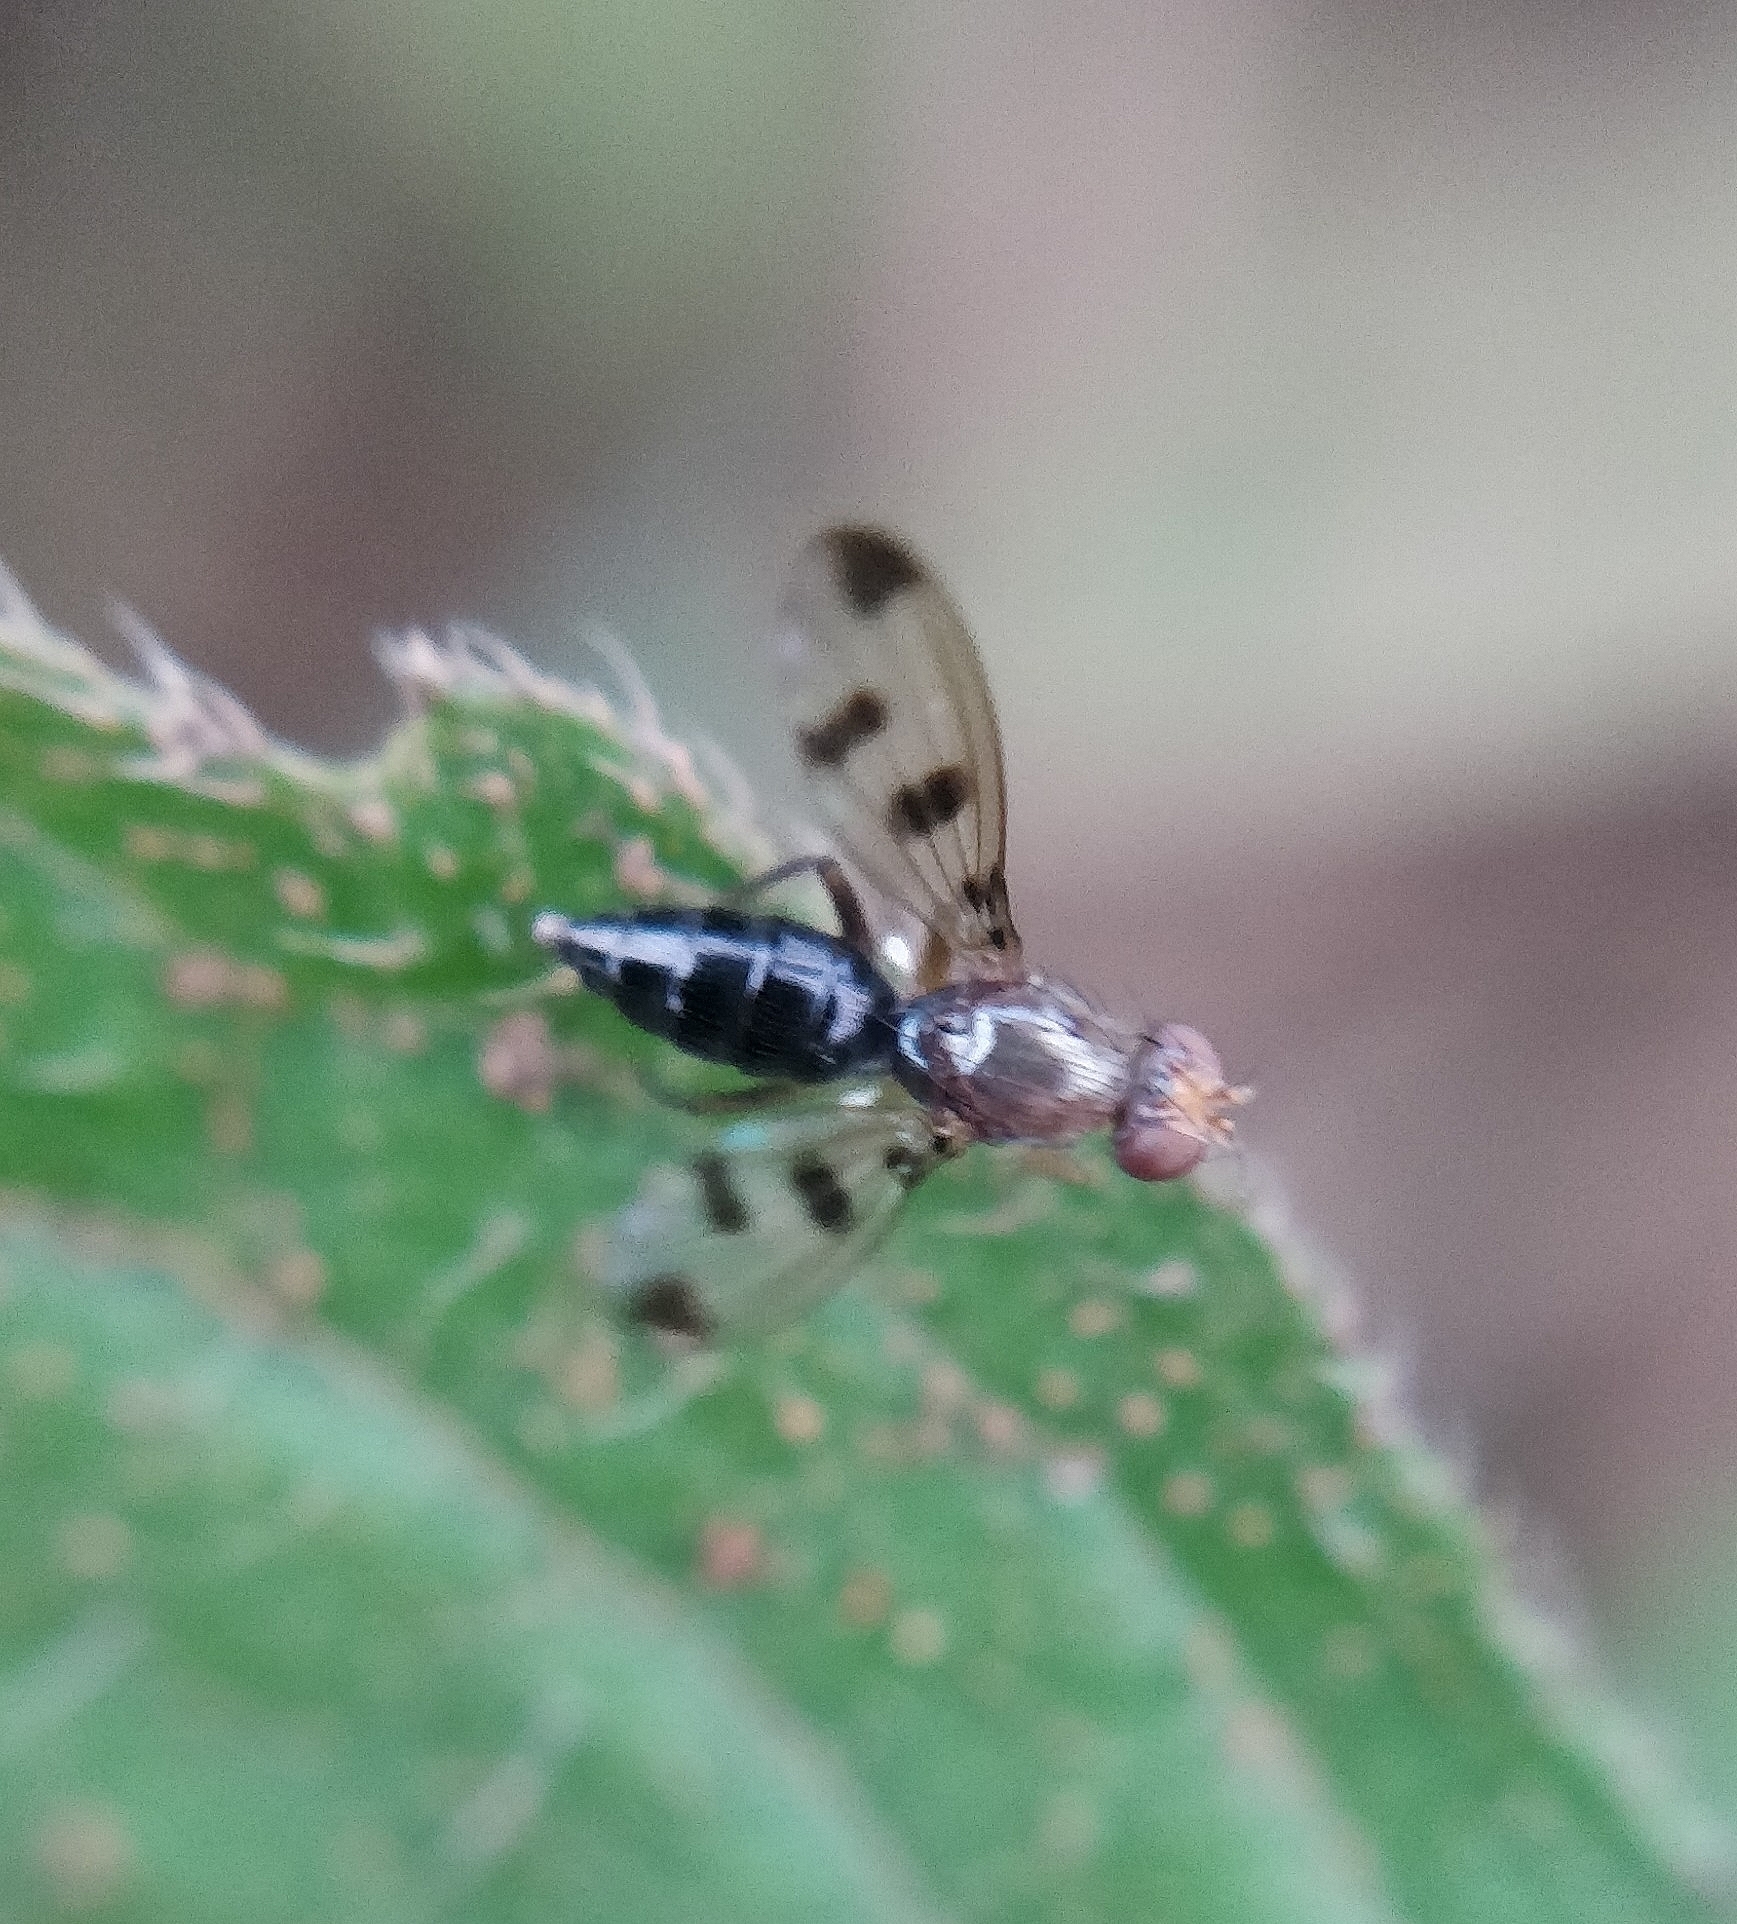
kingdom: Animalia
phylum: Arthropoda
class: Insecta
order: Diptera
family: Opomyzidae
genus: Geomyza
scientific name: Geomyza tripunctata
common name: Cereal fly
